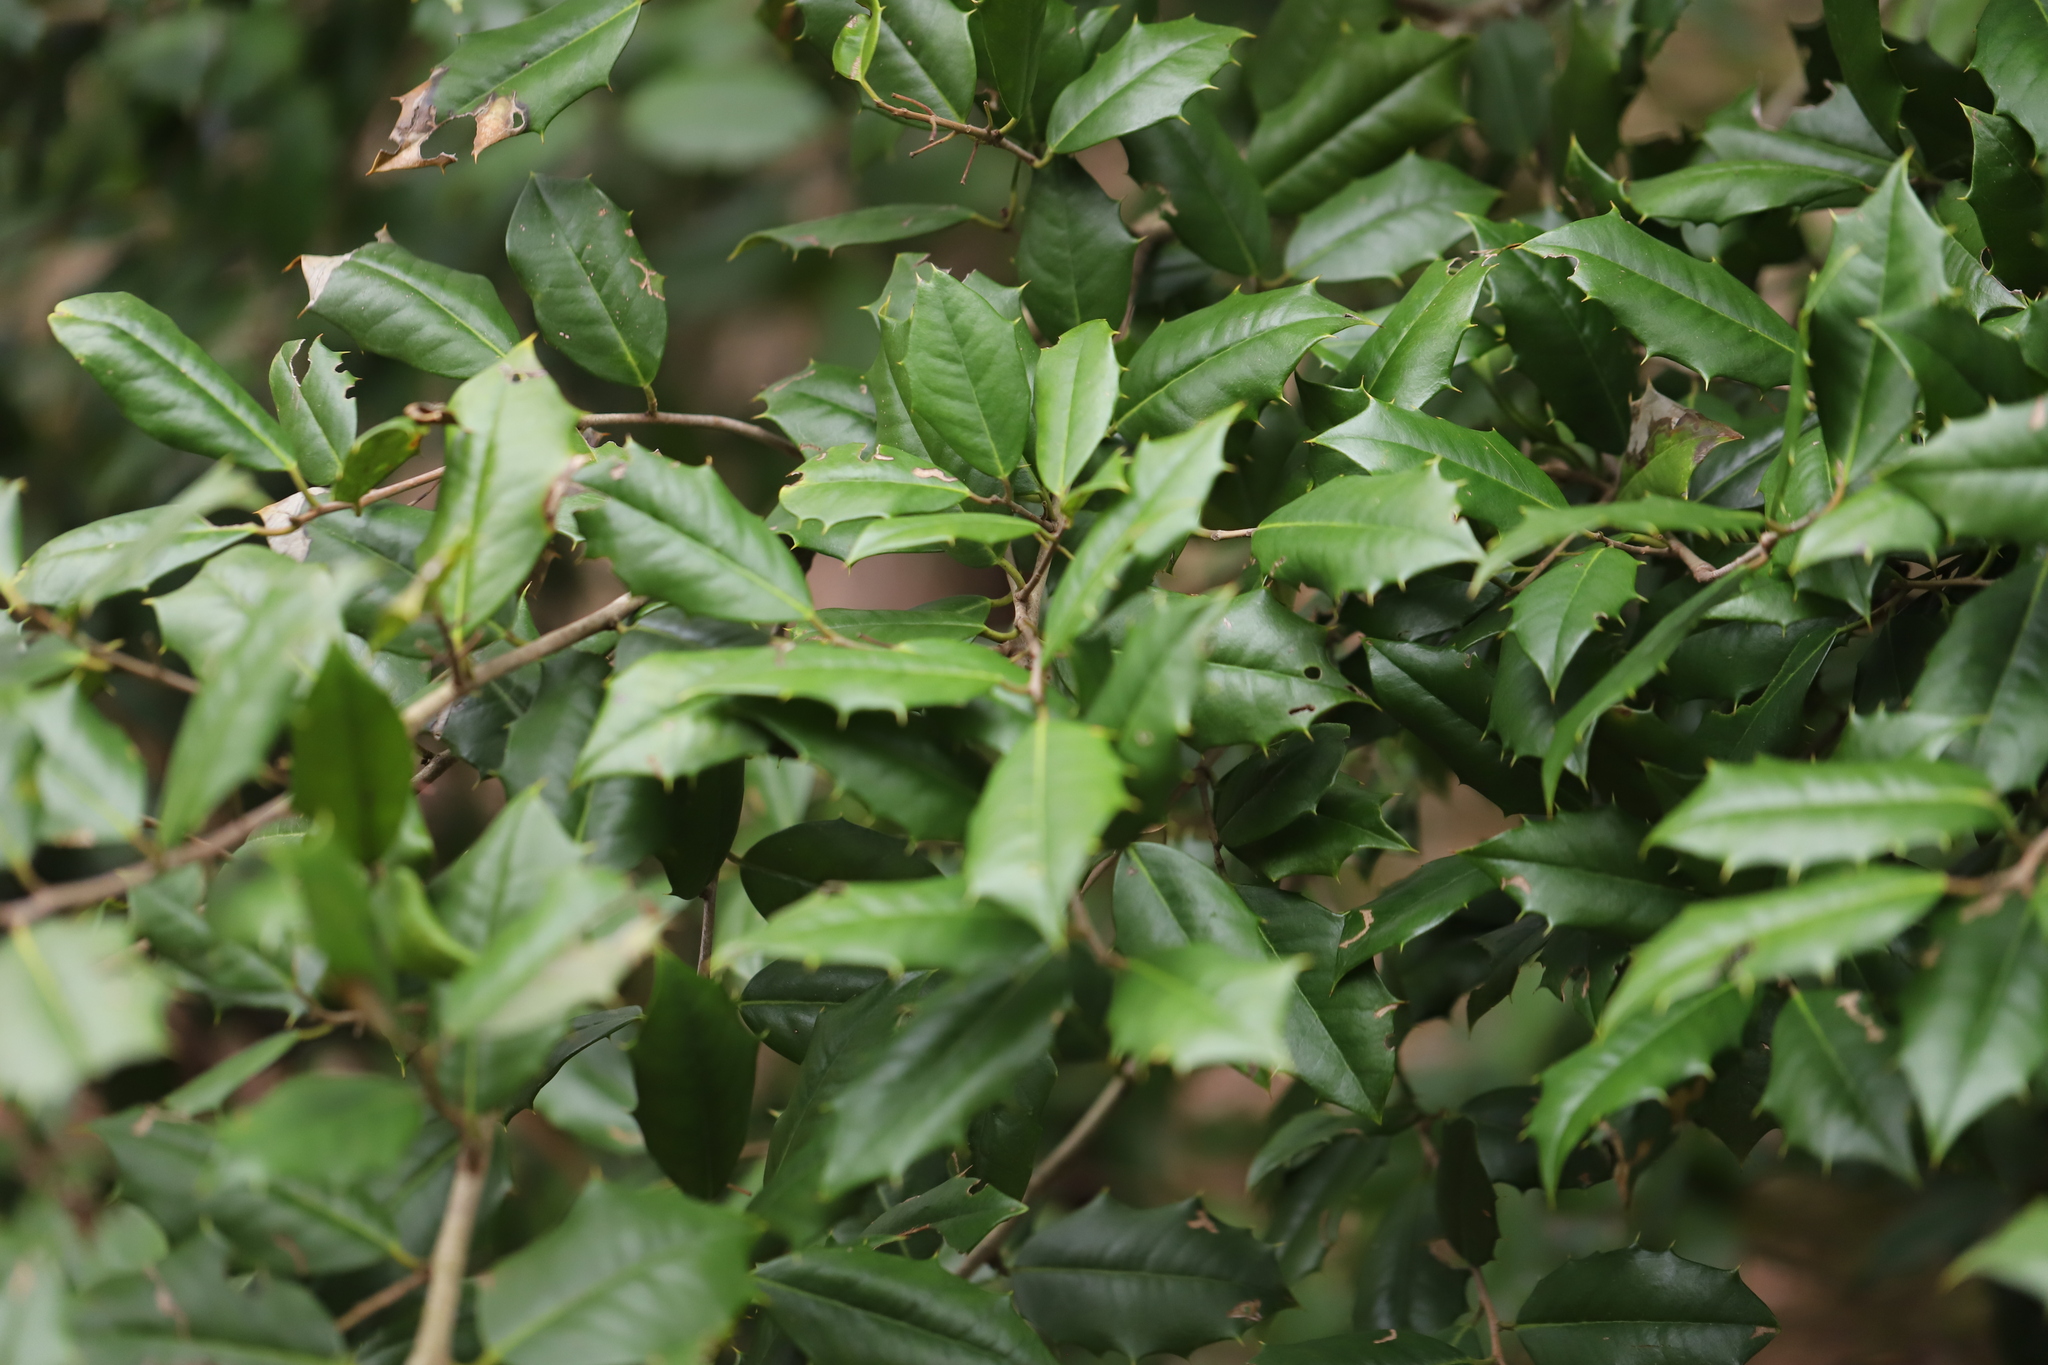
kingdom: Plantae
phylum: Tracheophyta
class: Magnoliopsida
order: Aquifoliales
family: Aquifoliaceae
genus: Ilex
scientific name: Ilex opaca
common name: American holly
